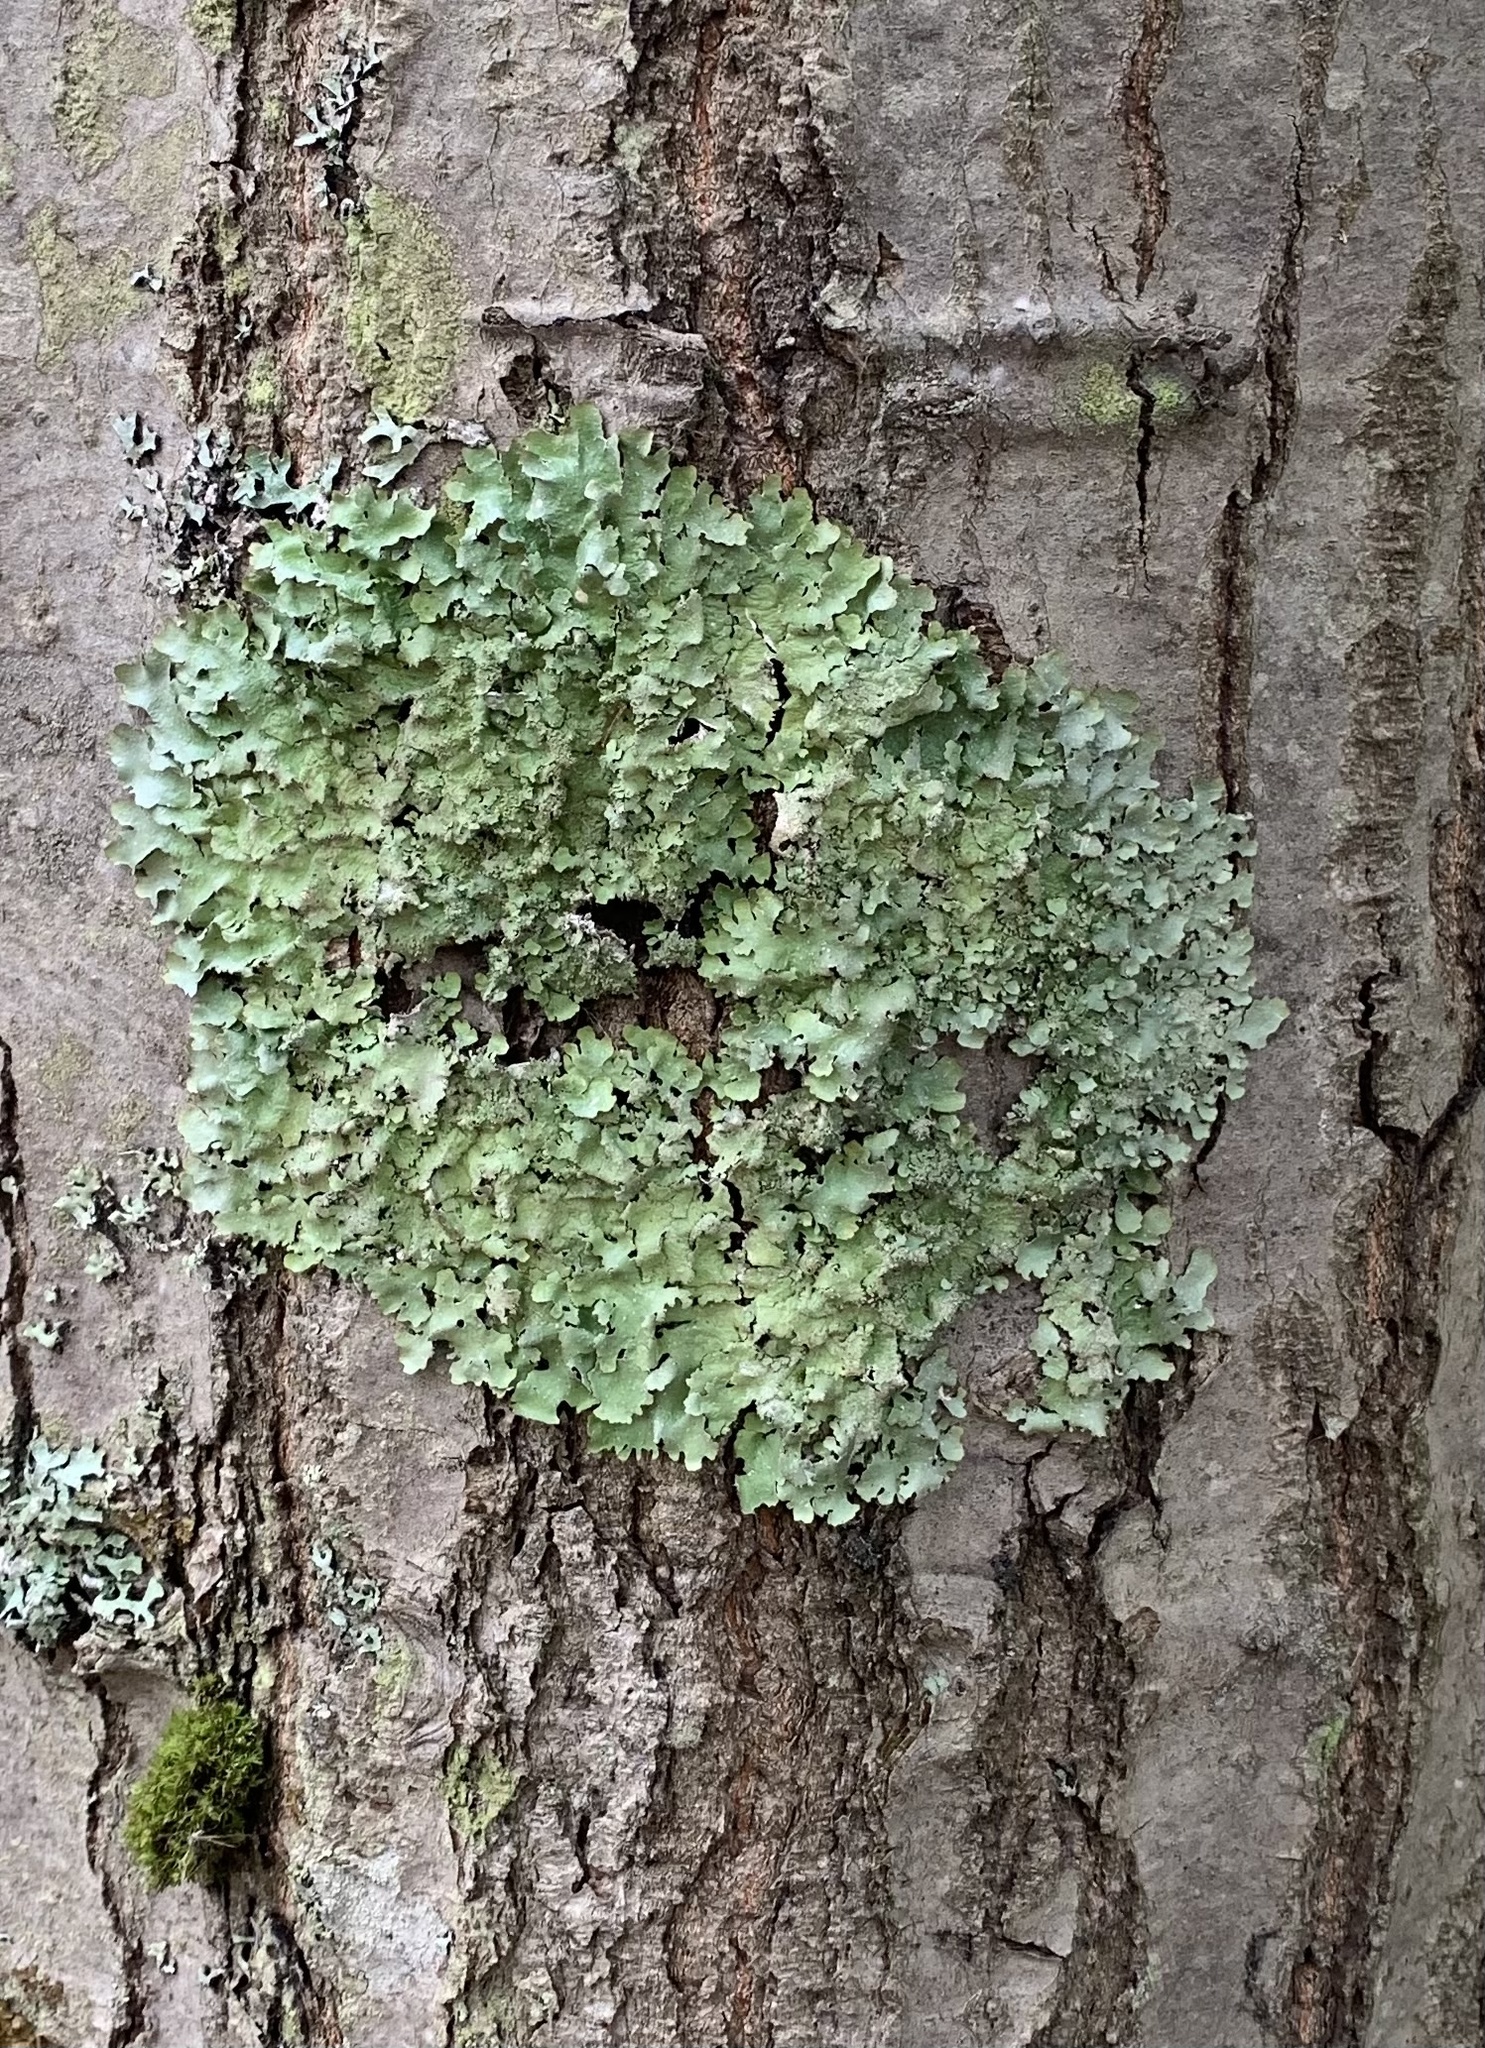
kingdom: Fungi
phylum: Ascomycota
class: Lecanoromycetes
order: Lecanorales
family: Parmeliaceae
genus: Punctelia
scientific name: Punctelia rudecta
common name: Rough speckled shield lichen
